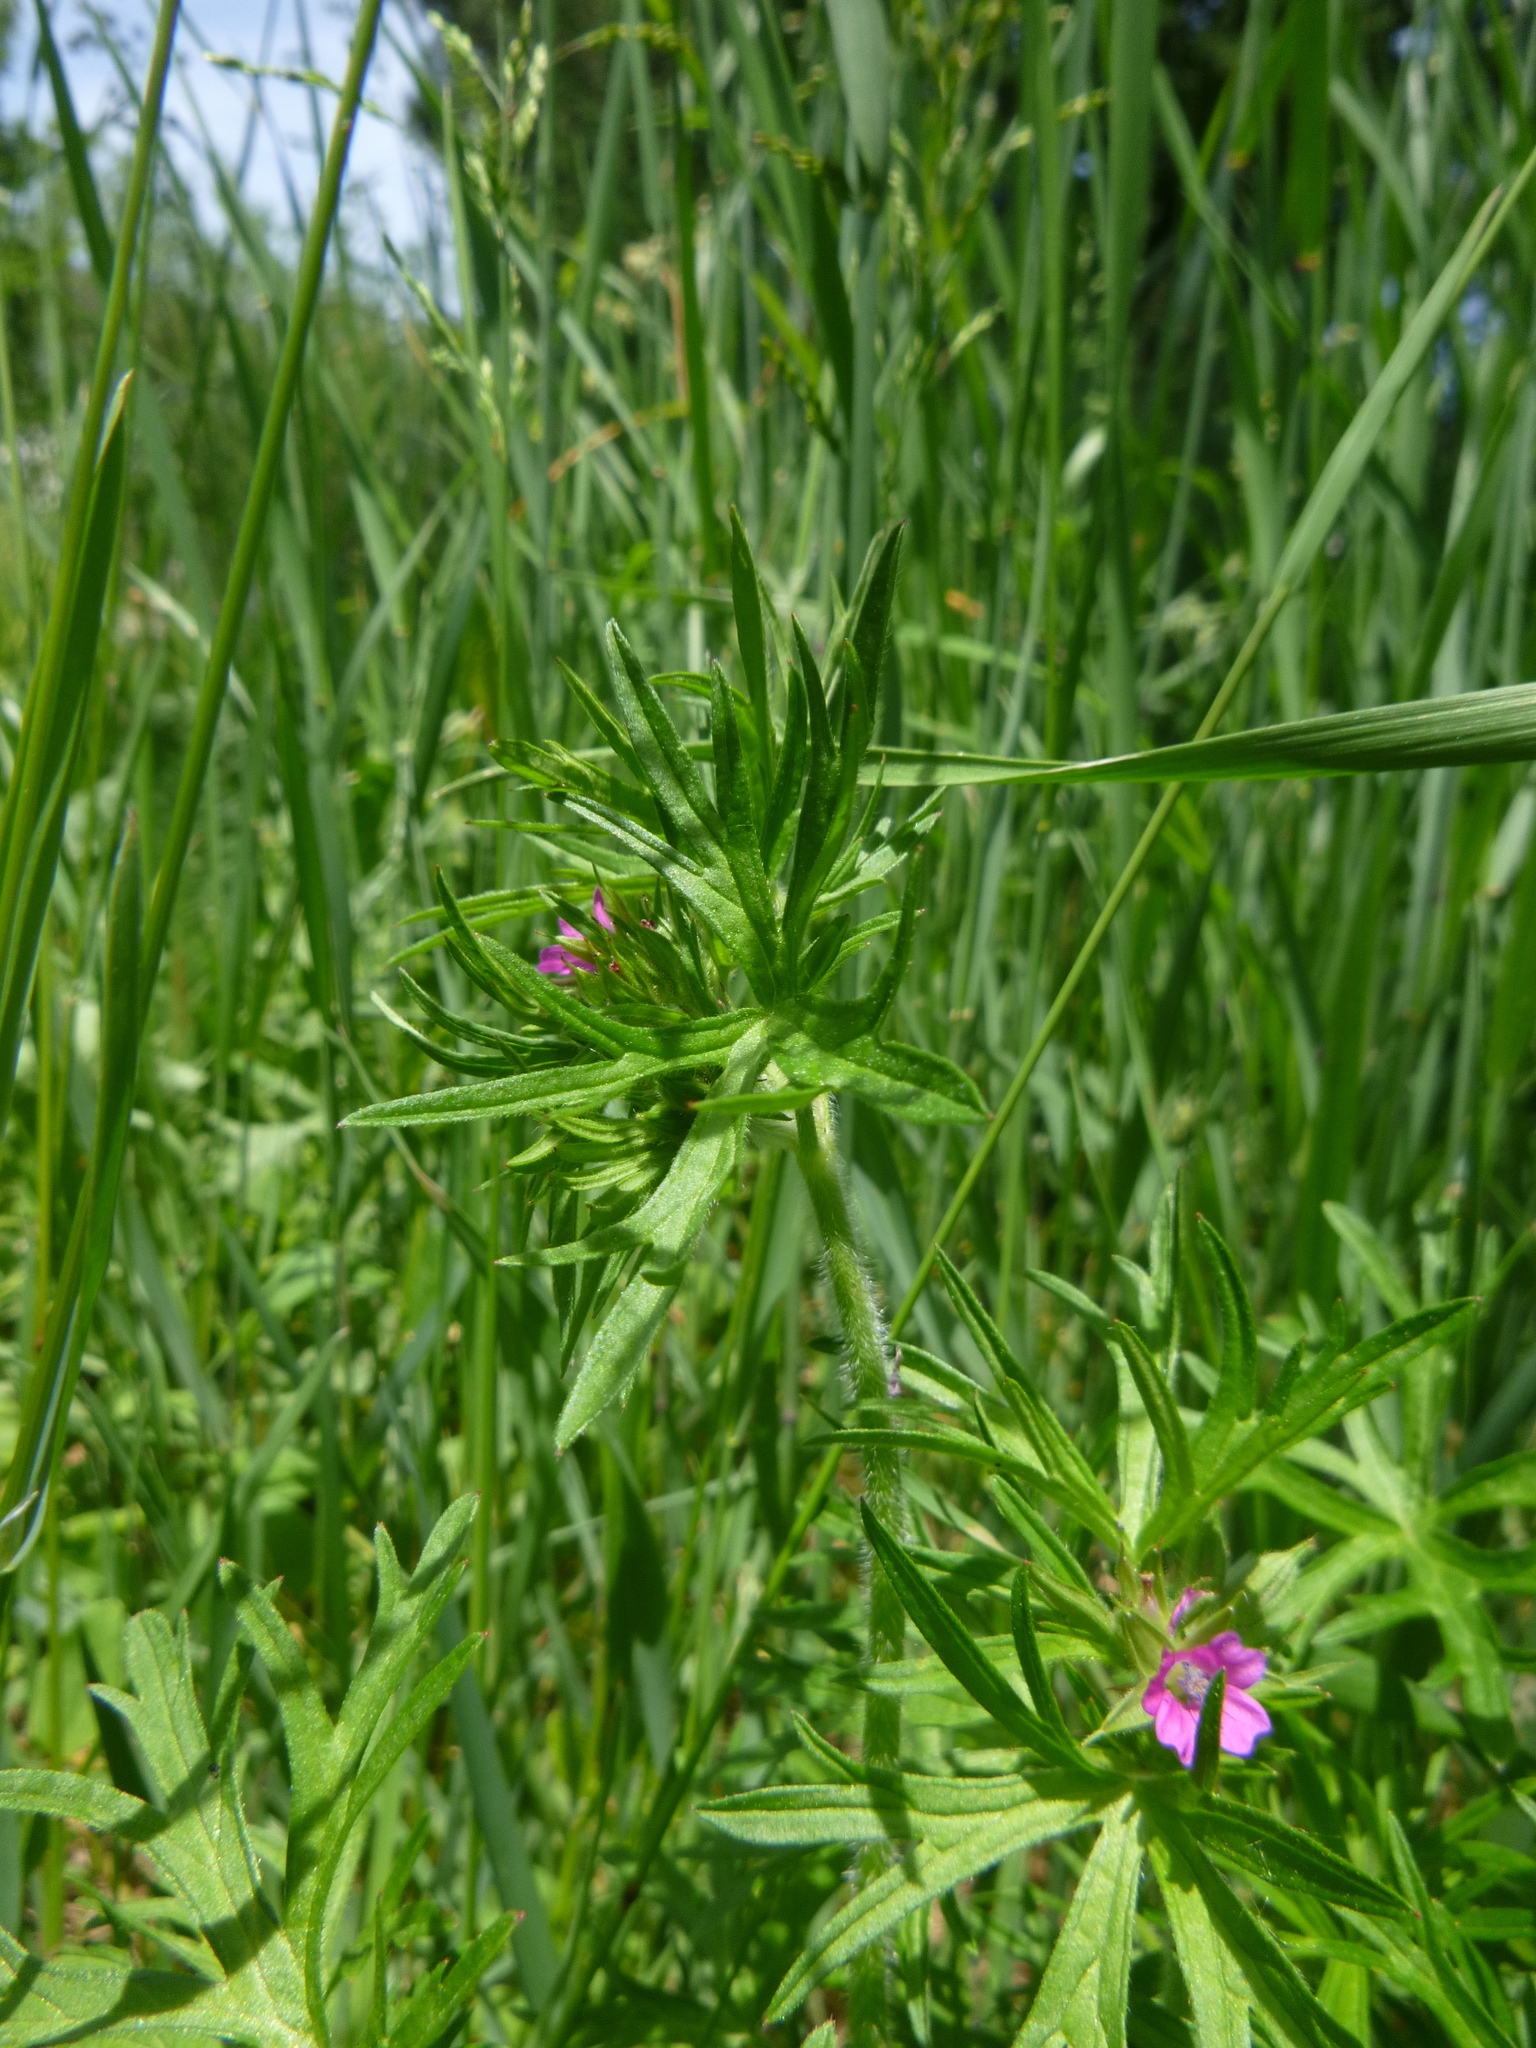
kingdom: Plantae
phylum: Tracheophyta
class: Magnoliopsida
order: Geraniales
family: Geraniaceae
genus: Geranium
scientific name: Geranium dissectum
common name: Cut-leaved crane's-bill
